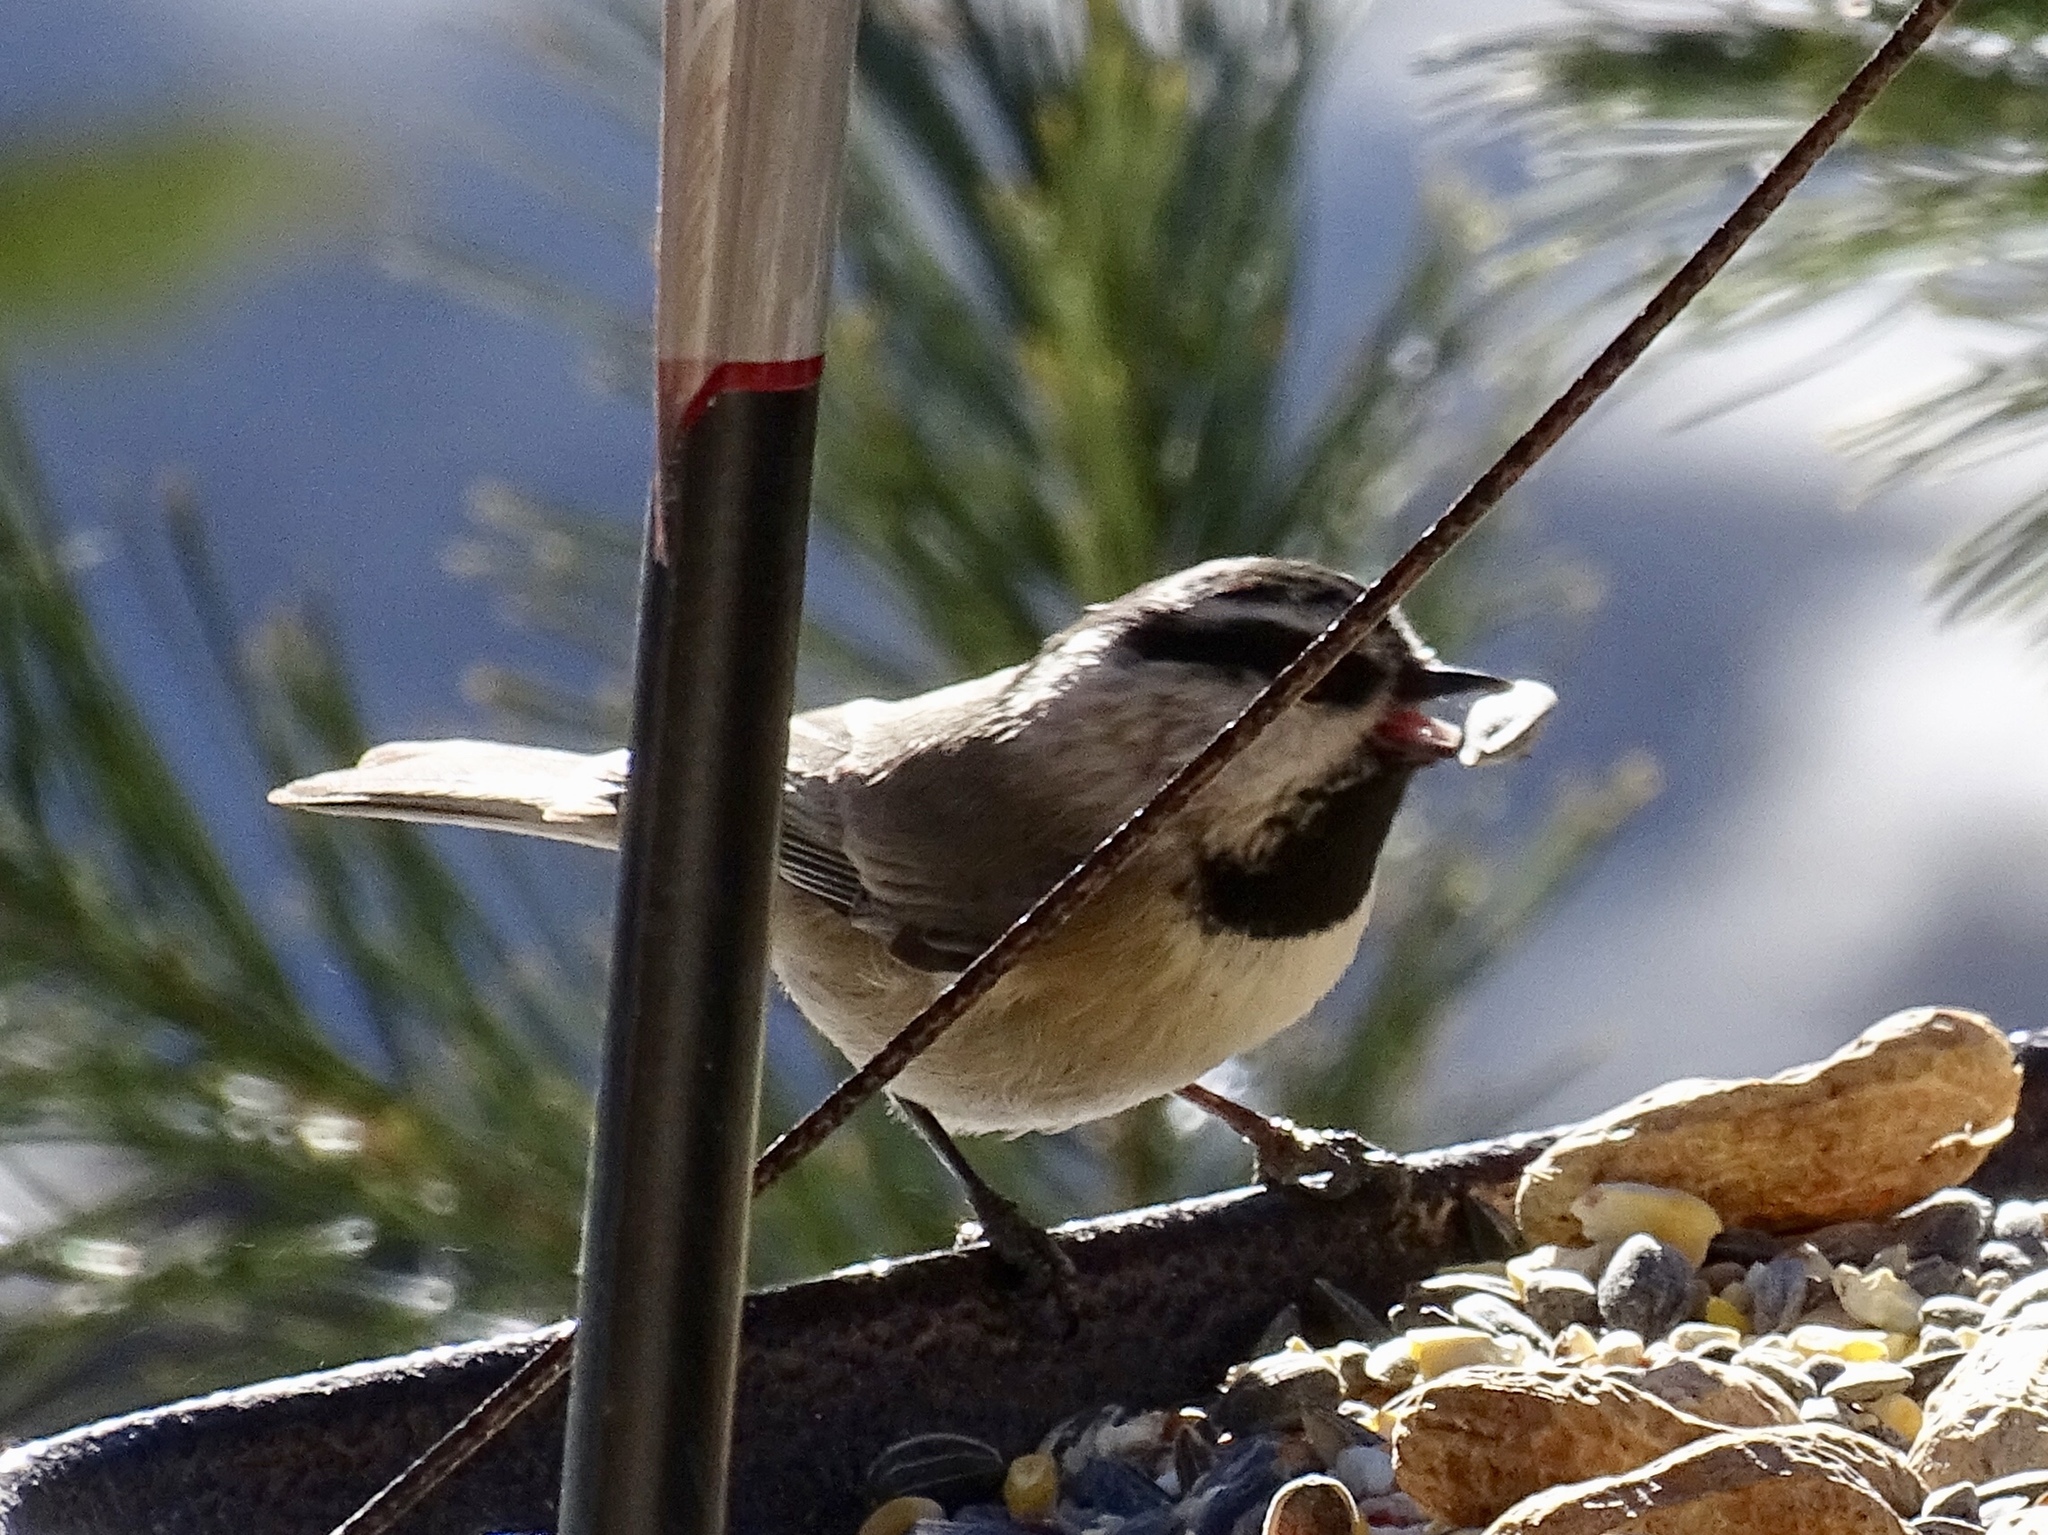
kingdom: Animalia
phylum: Chordata
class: Aves
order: Passeriformes
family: Paridae
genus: Poecile
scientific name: Poecile gambeli
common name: Mountain chickadee
